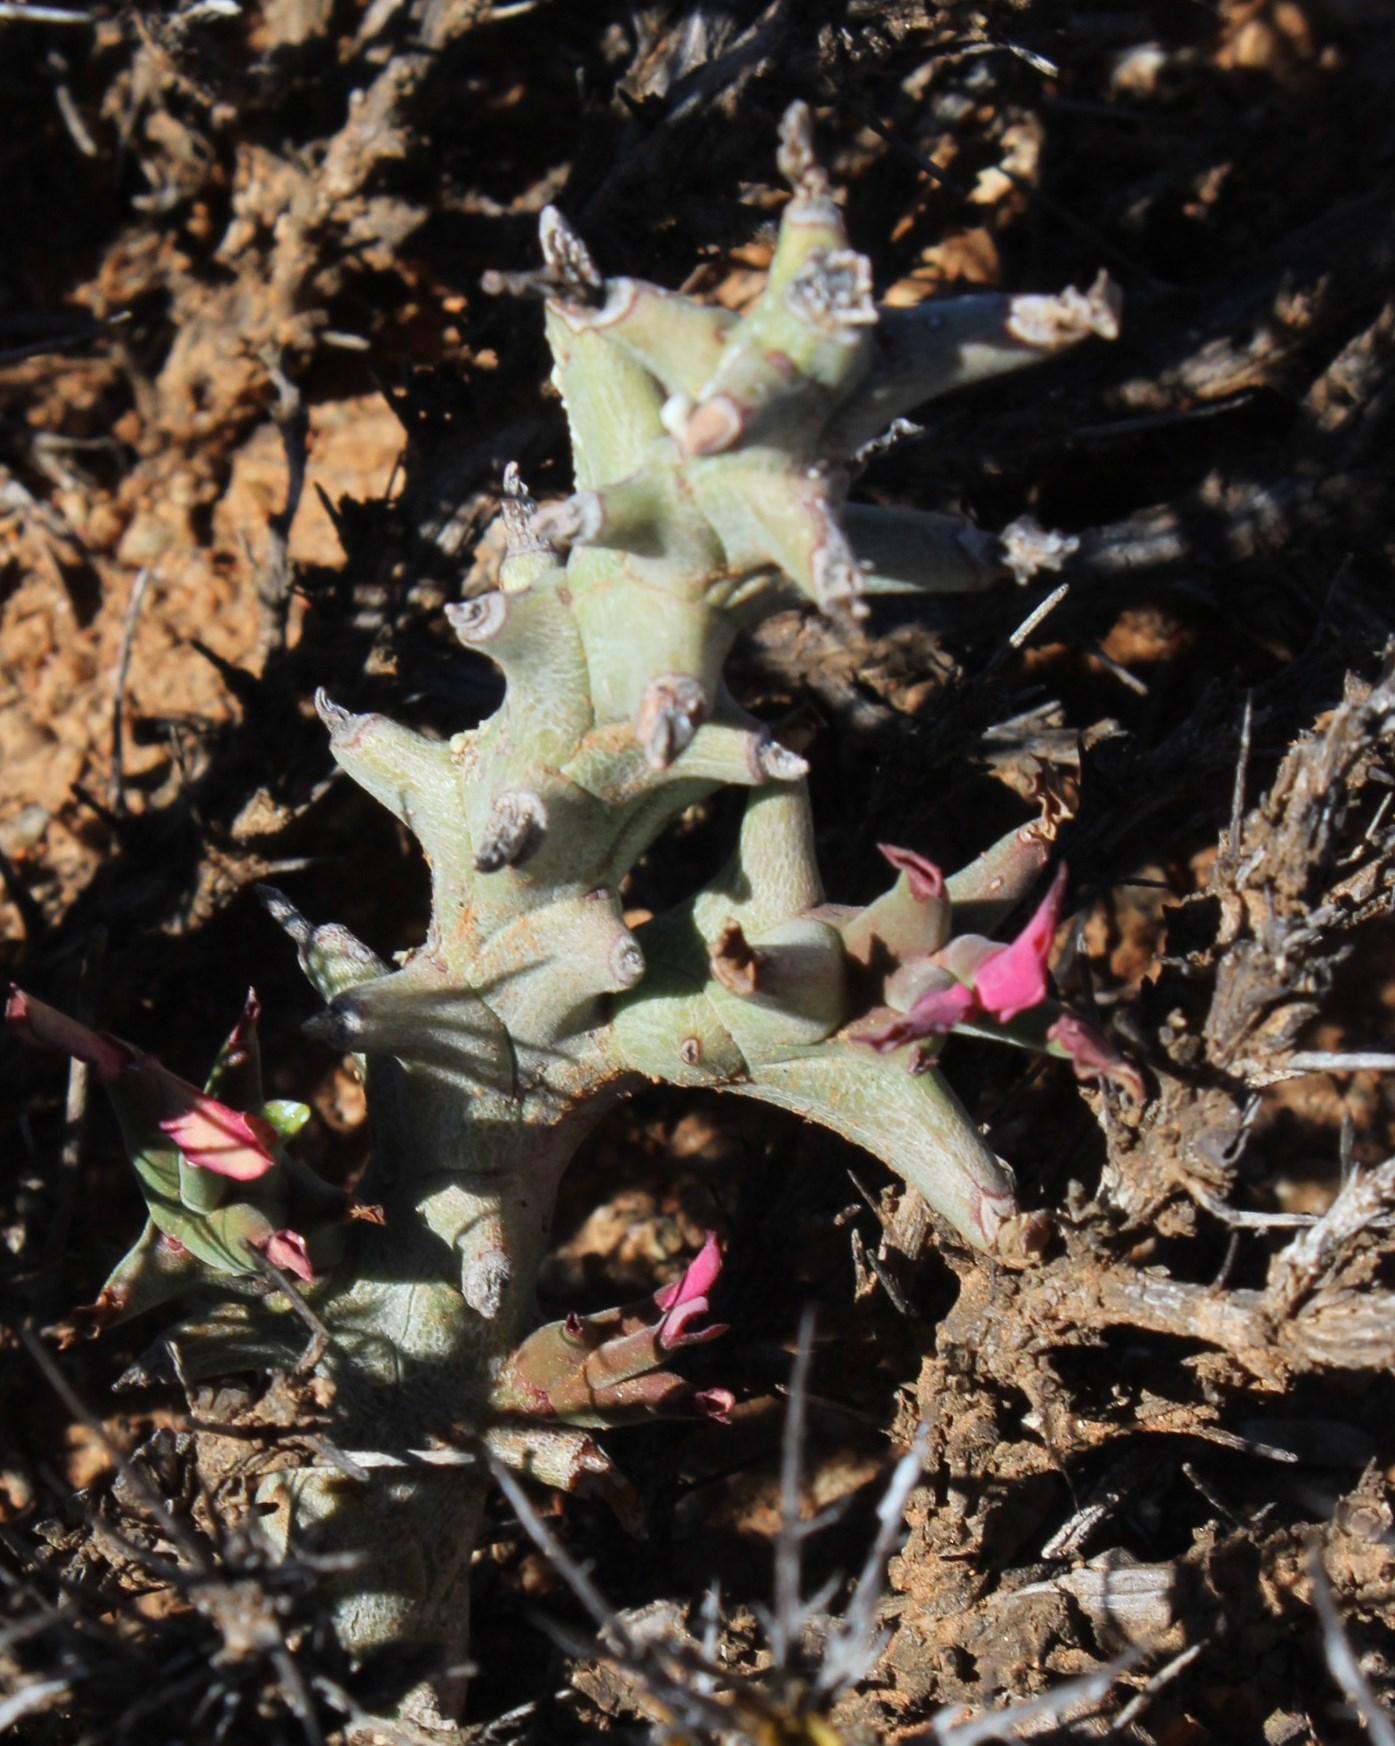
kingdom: Plantae
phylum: Tracheophyta
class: Magnoliopsida
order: Malpighiales
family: Euphorbiaceae
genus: Euphorbia
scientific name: Euphorbia hamata
